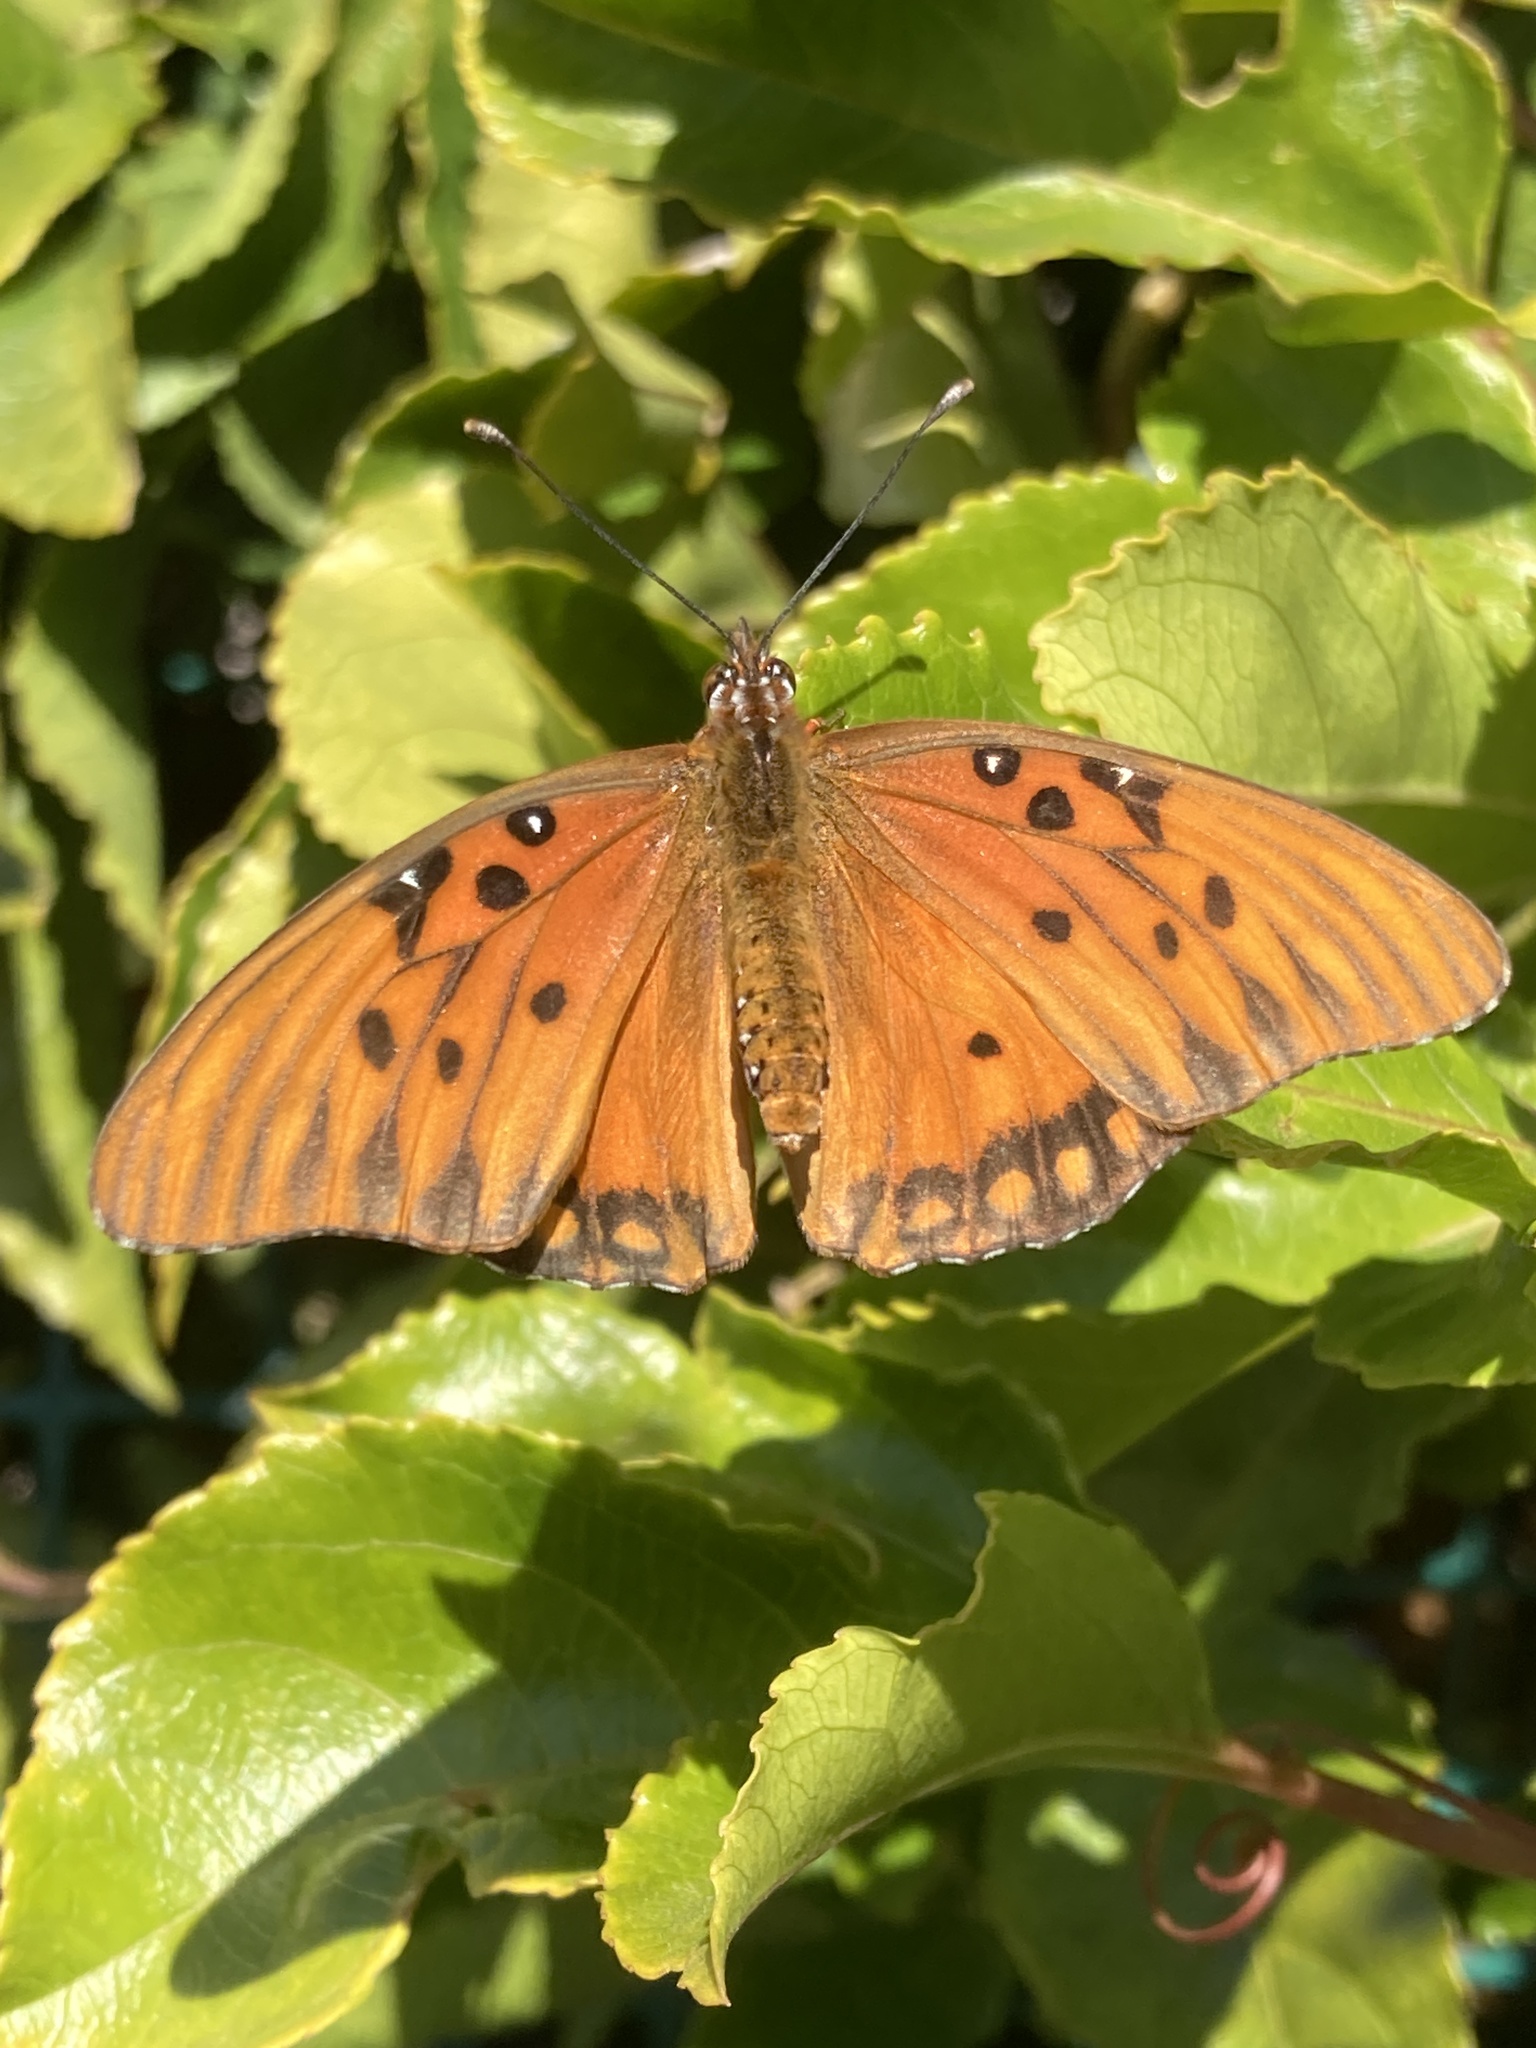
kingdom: Animalia
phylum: Arthropoda
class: Insecta
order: Lepidoptera
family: Nymphalidae
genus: Dione
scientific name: Dione vanillae
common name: Gulf fritillary
